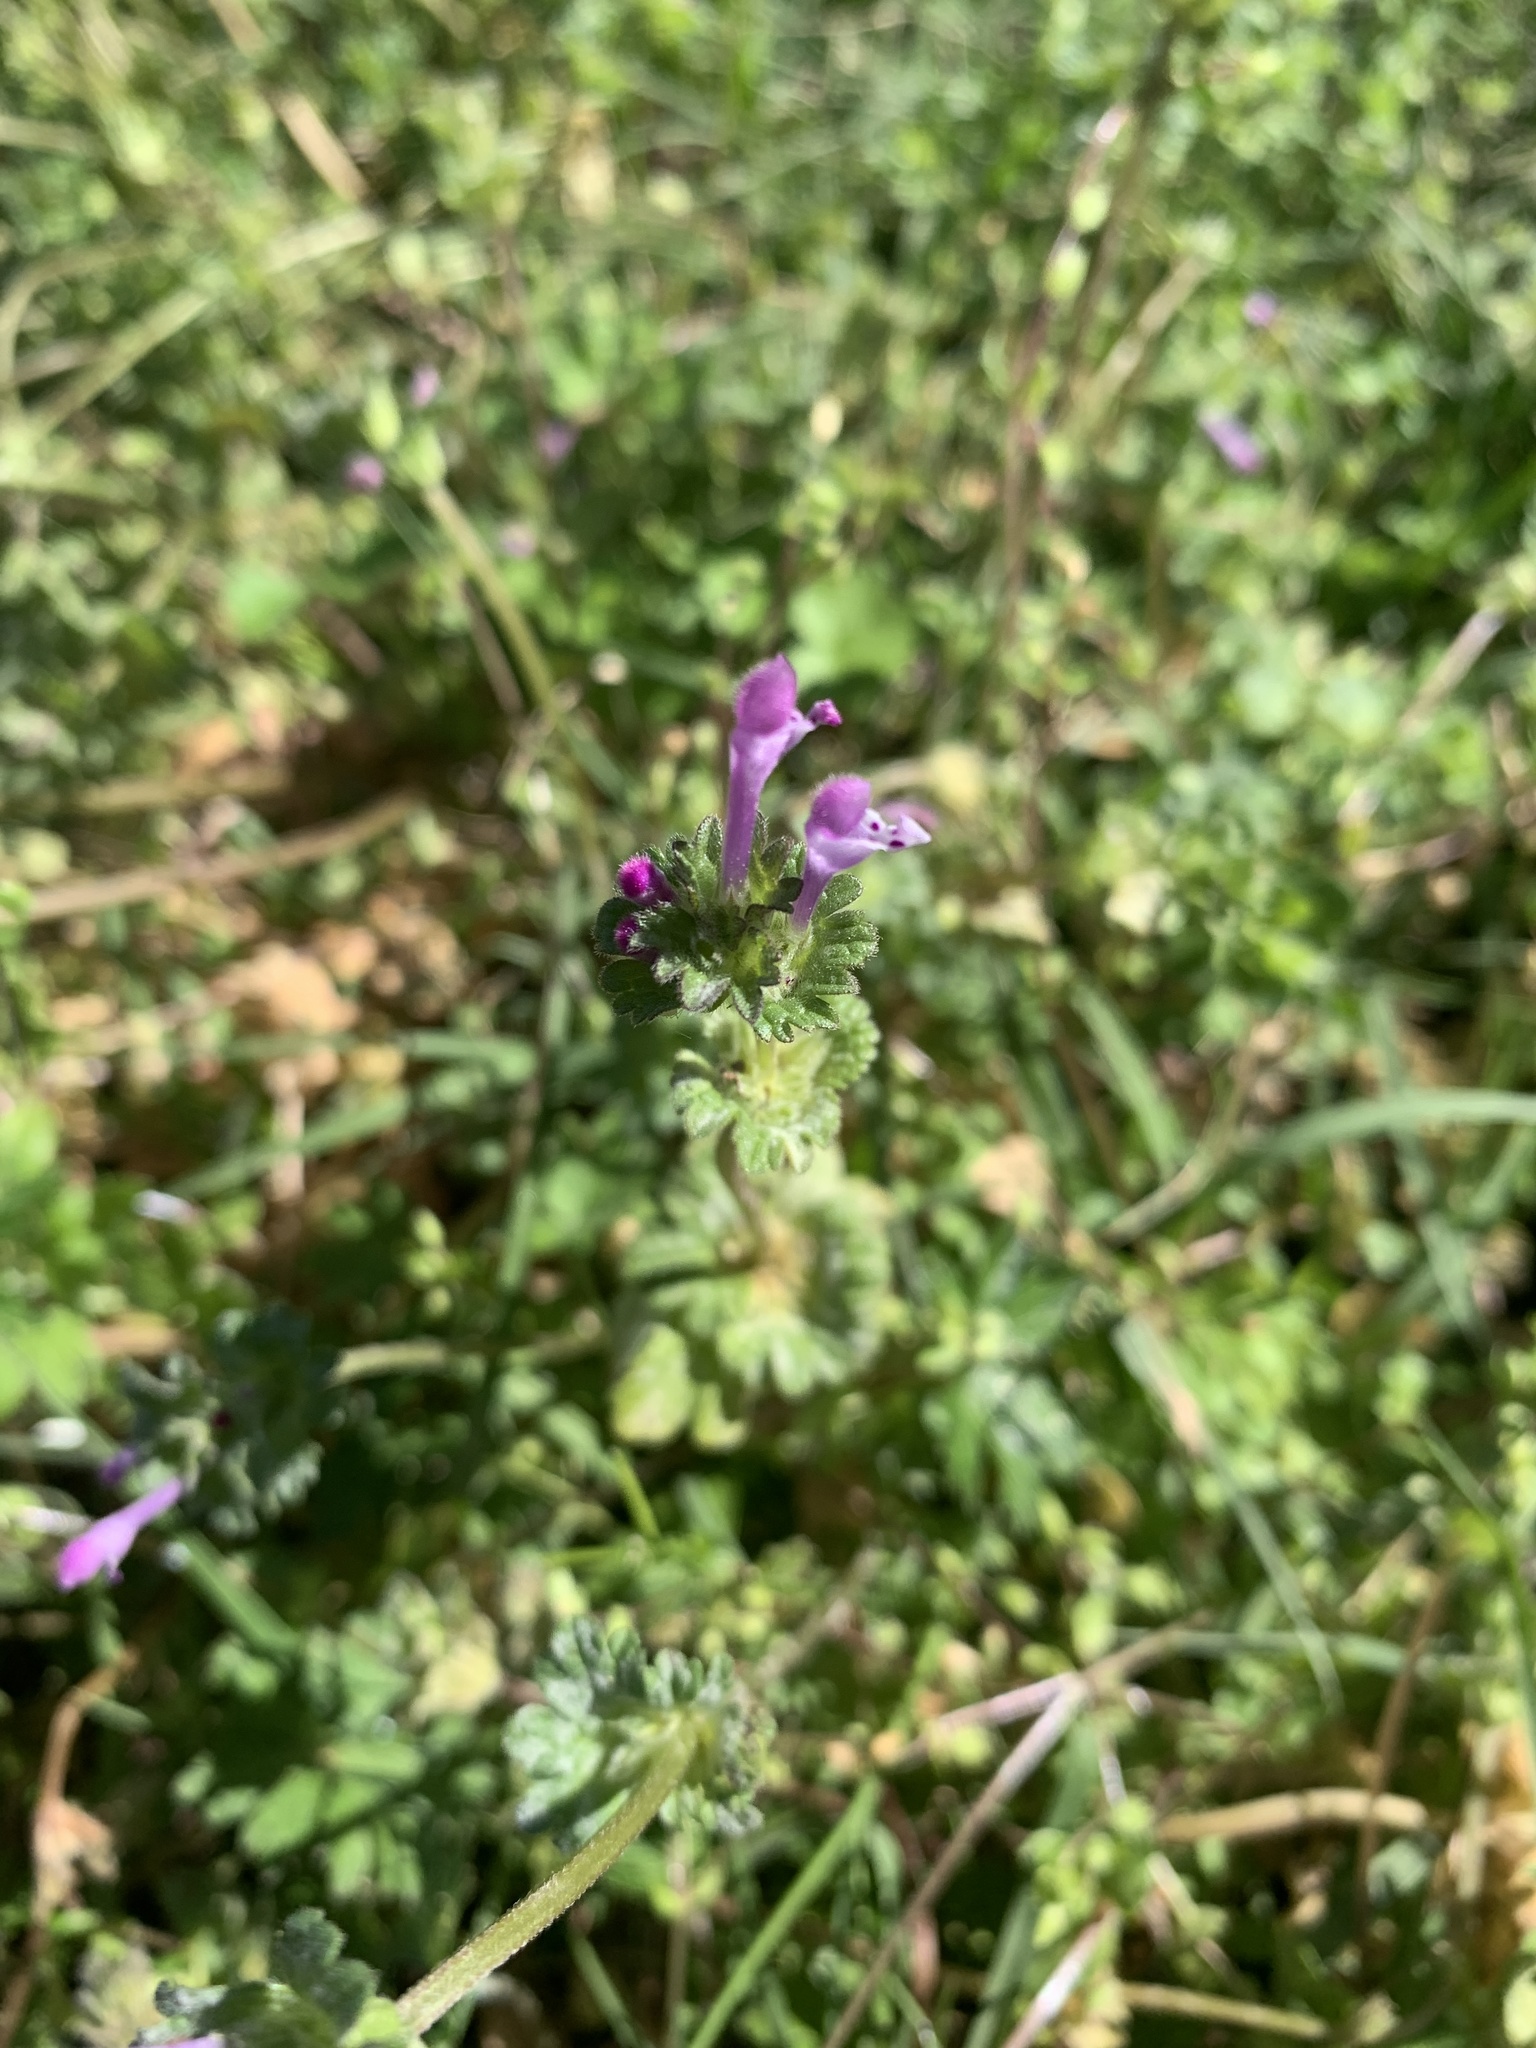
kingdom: Plantae
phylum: Tracheophyta
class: Magnoliopsida
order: Lamiales
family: Lamiaceae
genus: Lamium
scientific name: Lamium amplexicaule
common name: Henbit dead-nettle
